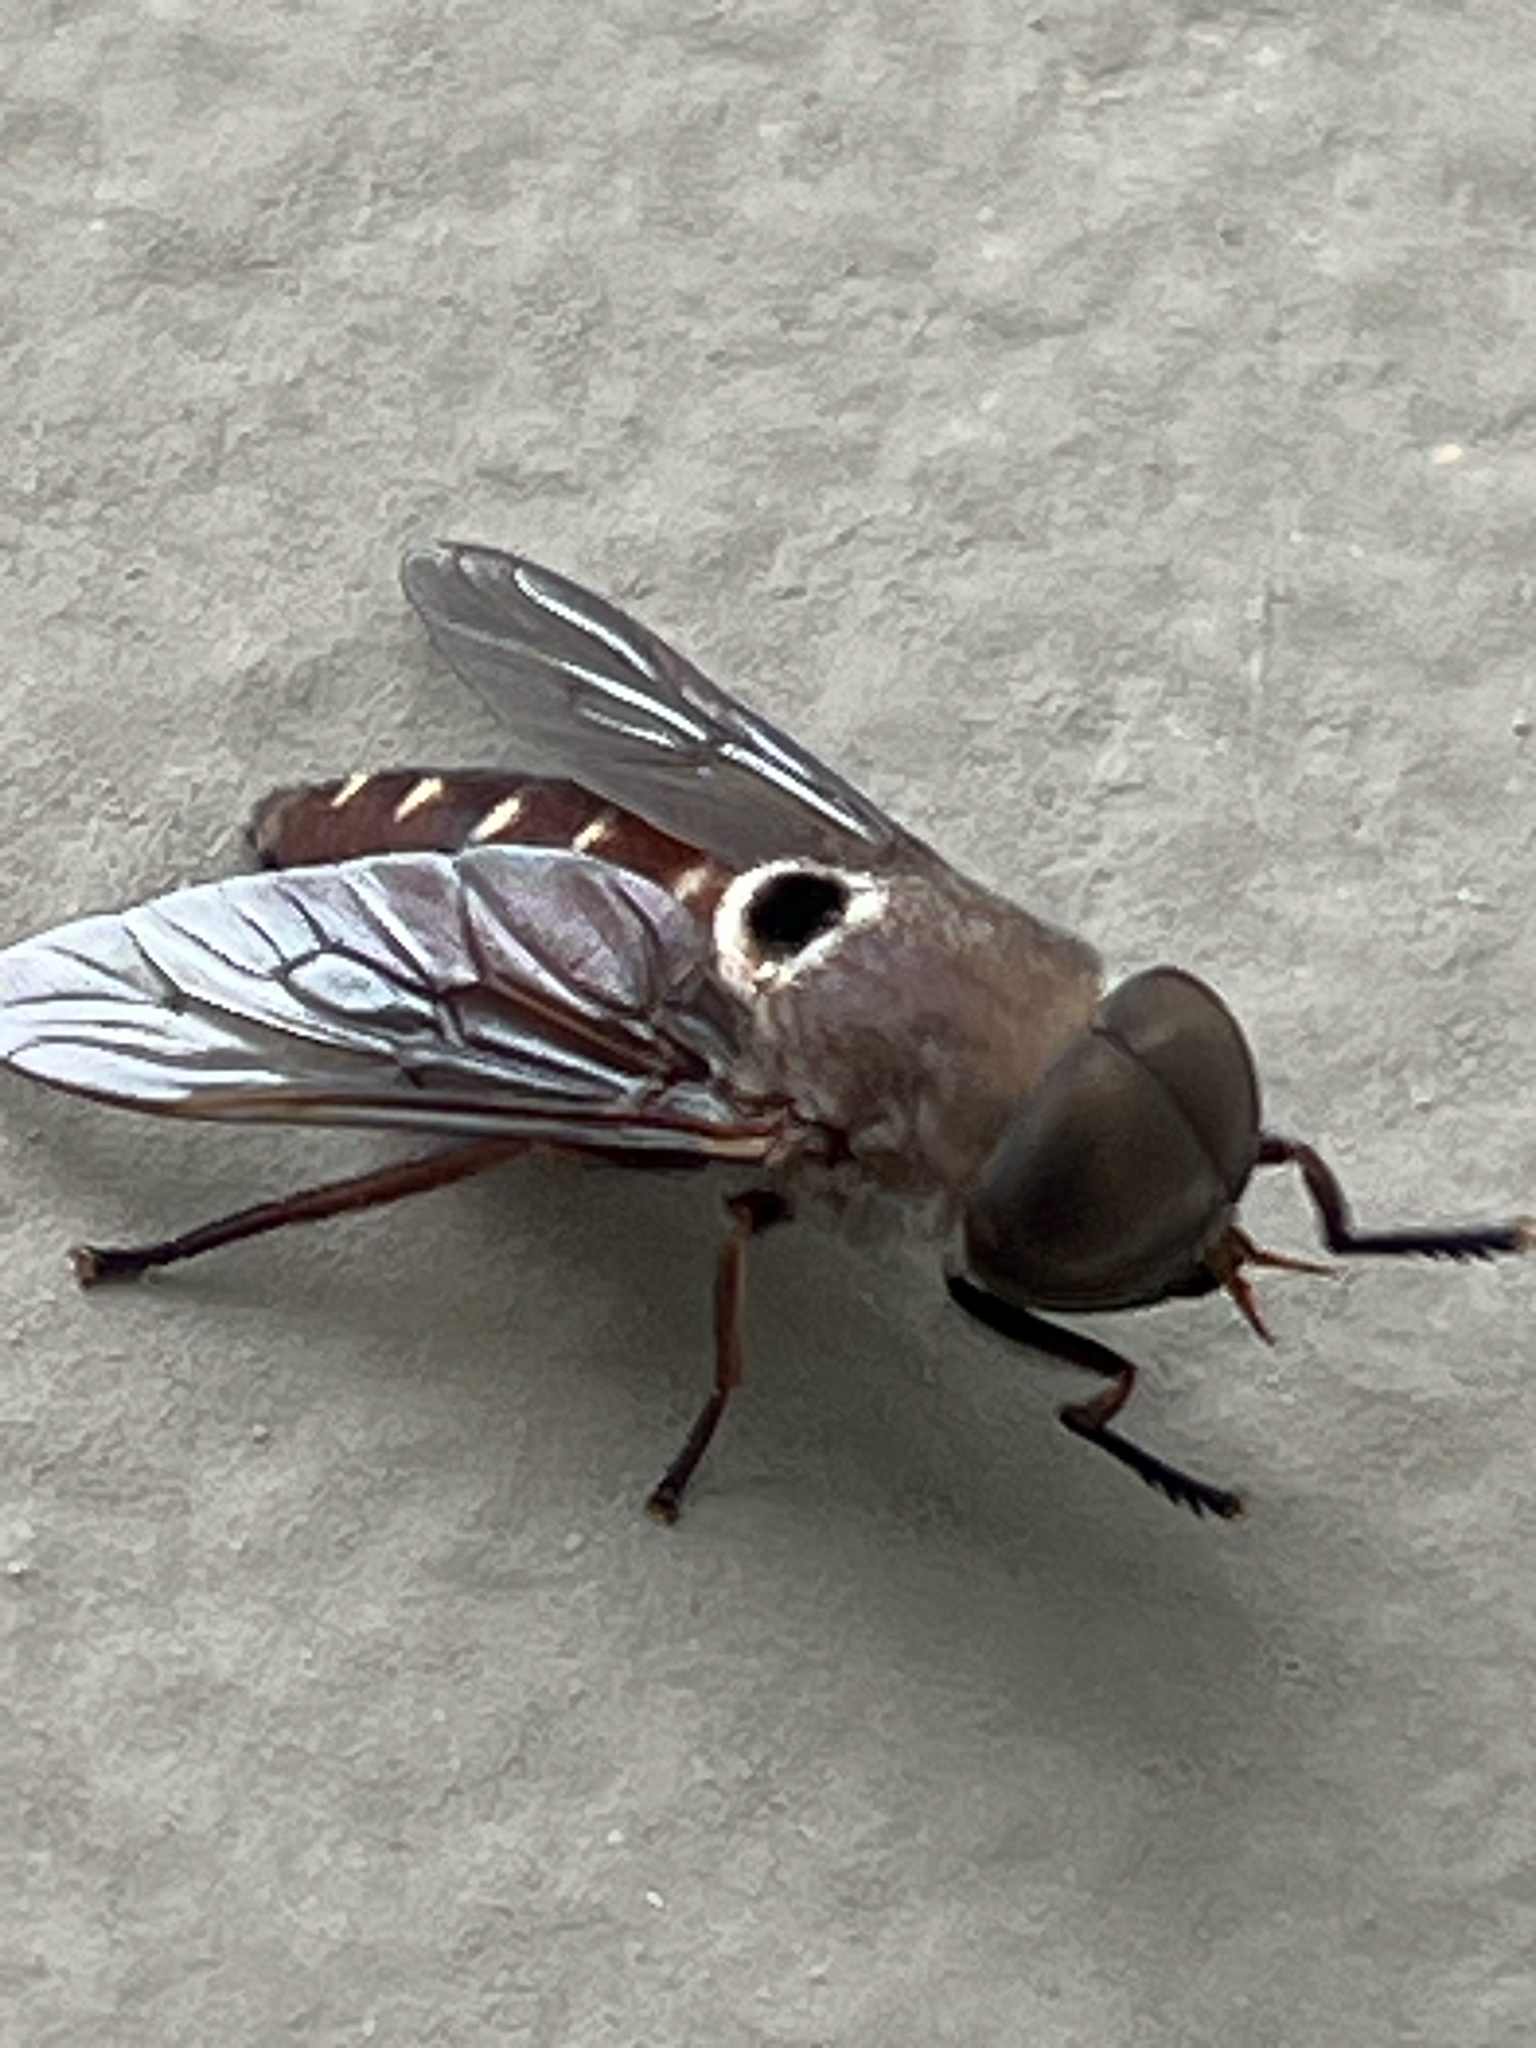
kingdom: Animalia
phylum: Arthropoda
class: Insecta
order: Diptera
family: Tabanidae
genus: Tabanus
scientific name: Tabanus albocirculus
